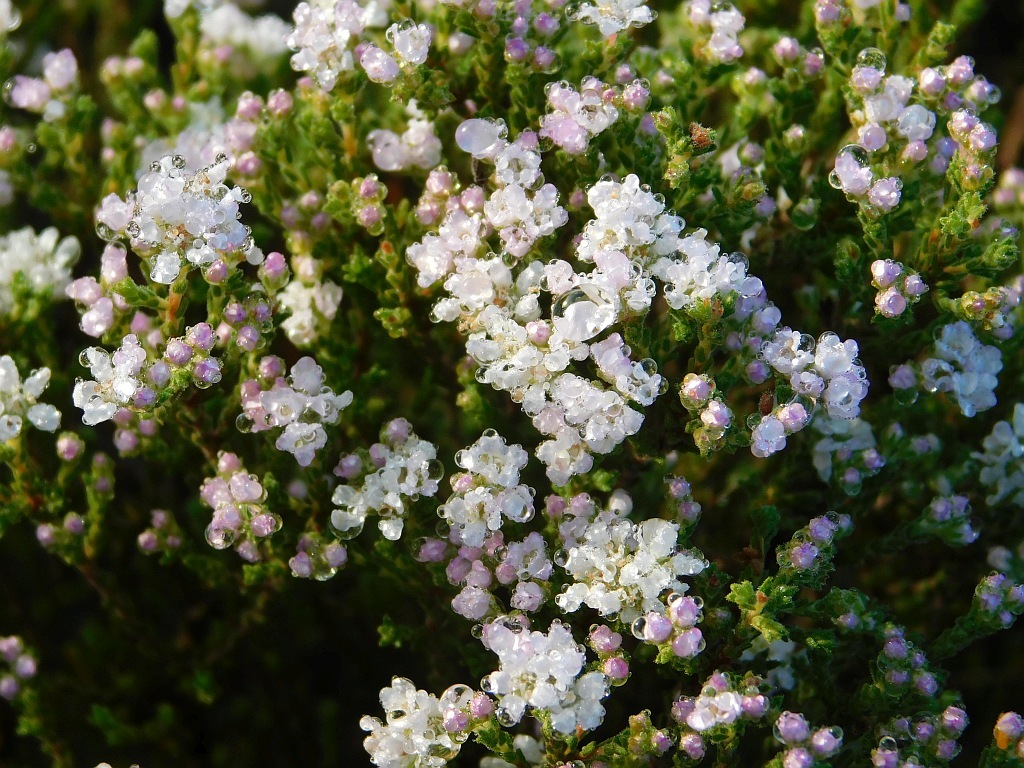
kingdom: Plantae
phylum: Tracheophyta
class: Magnoliopsida
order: Sapindales
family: Rutaceae
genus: Diosma
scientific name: Diosma oppositifolia
